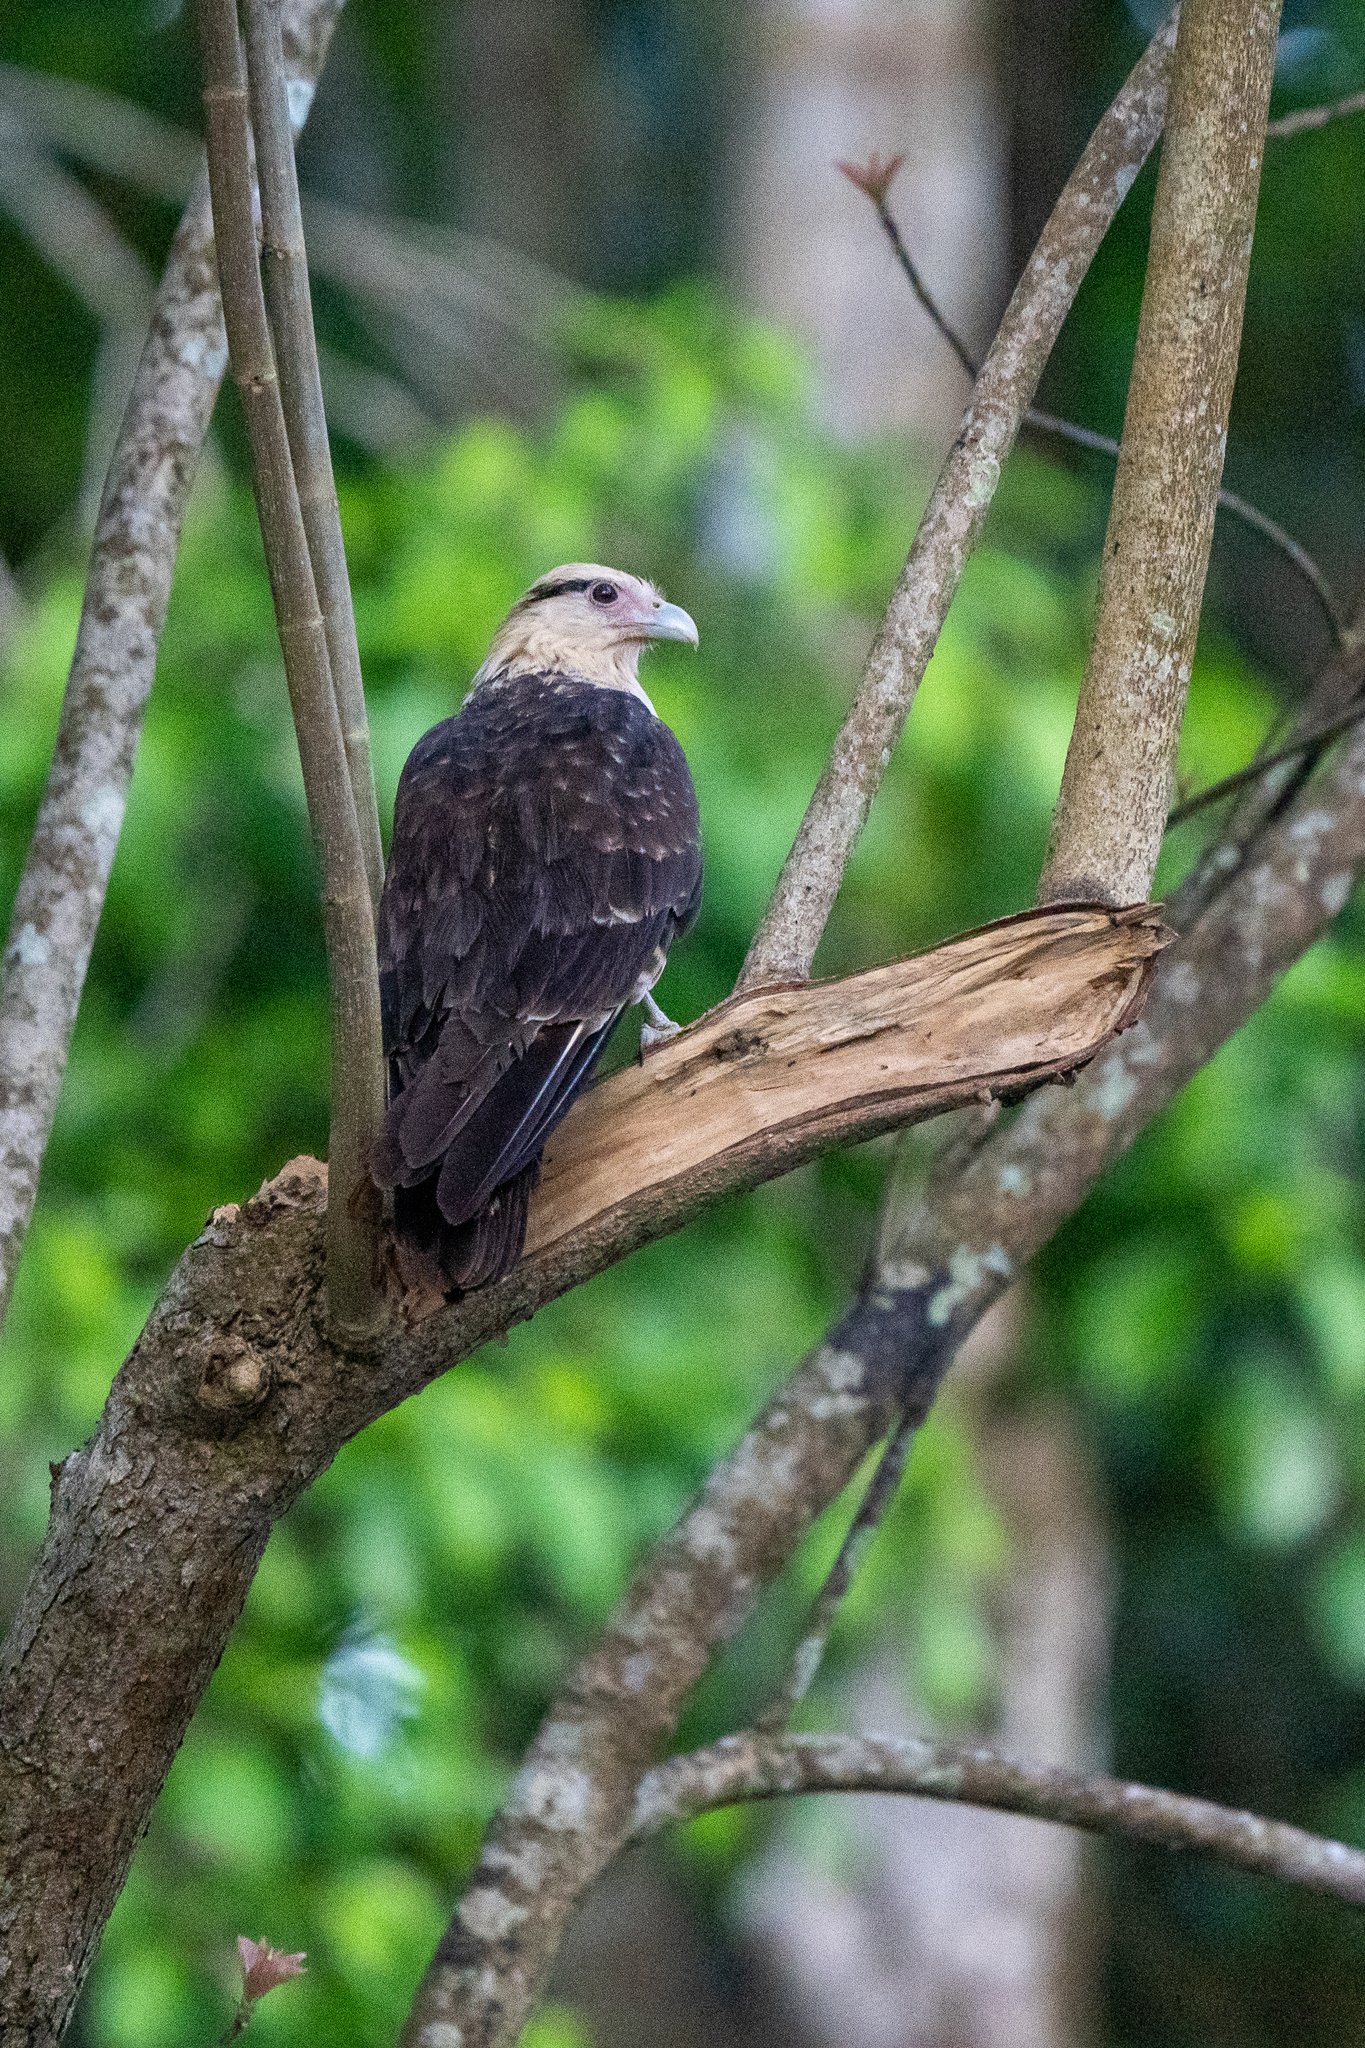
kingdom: Animalia
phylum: Chordata
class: Aves
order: Falconiformes
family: Falconidae
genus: Daptrius
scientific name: Daptrius
